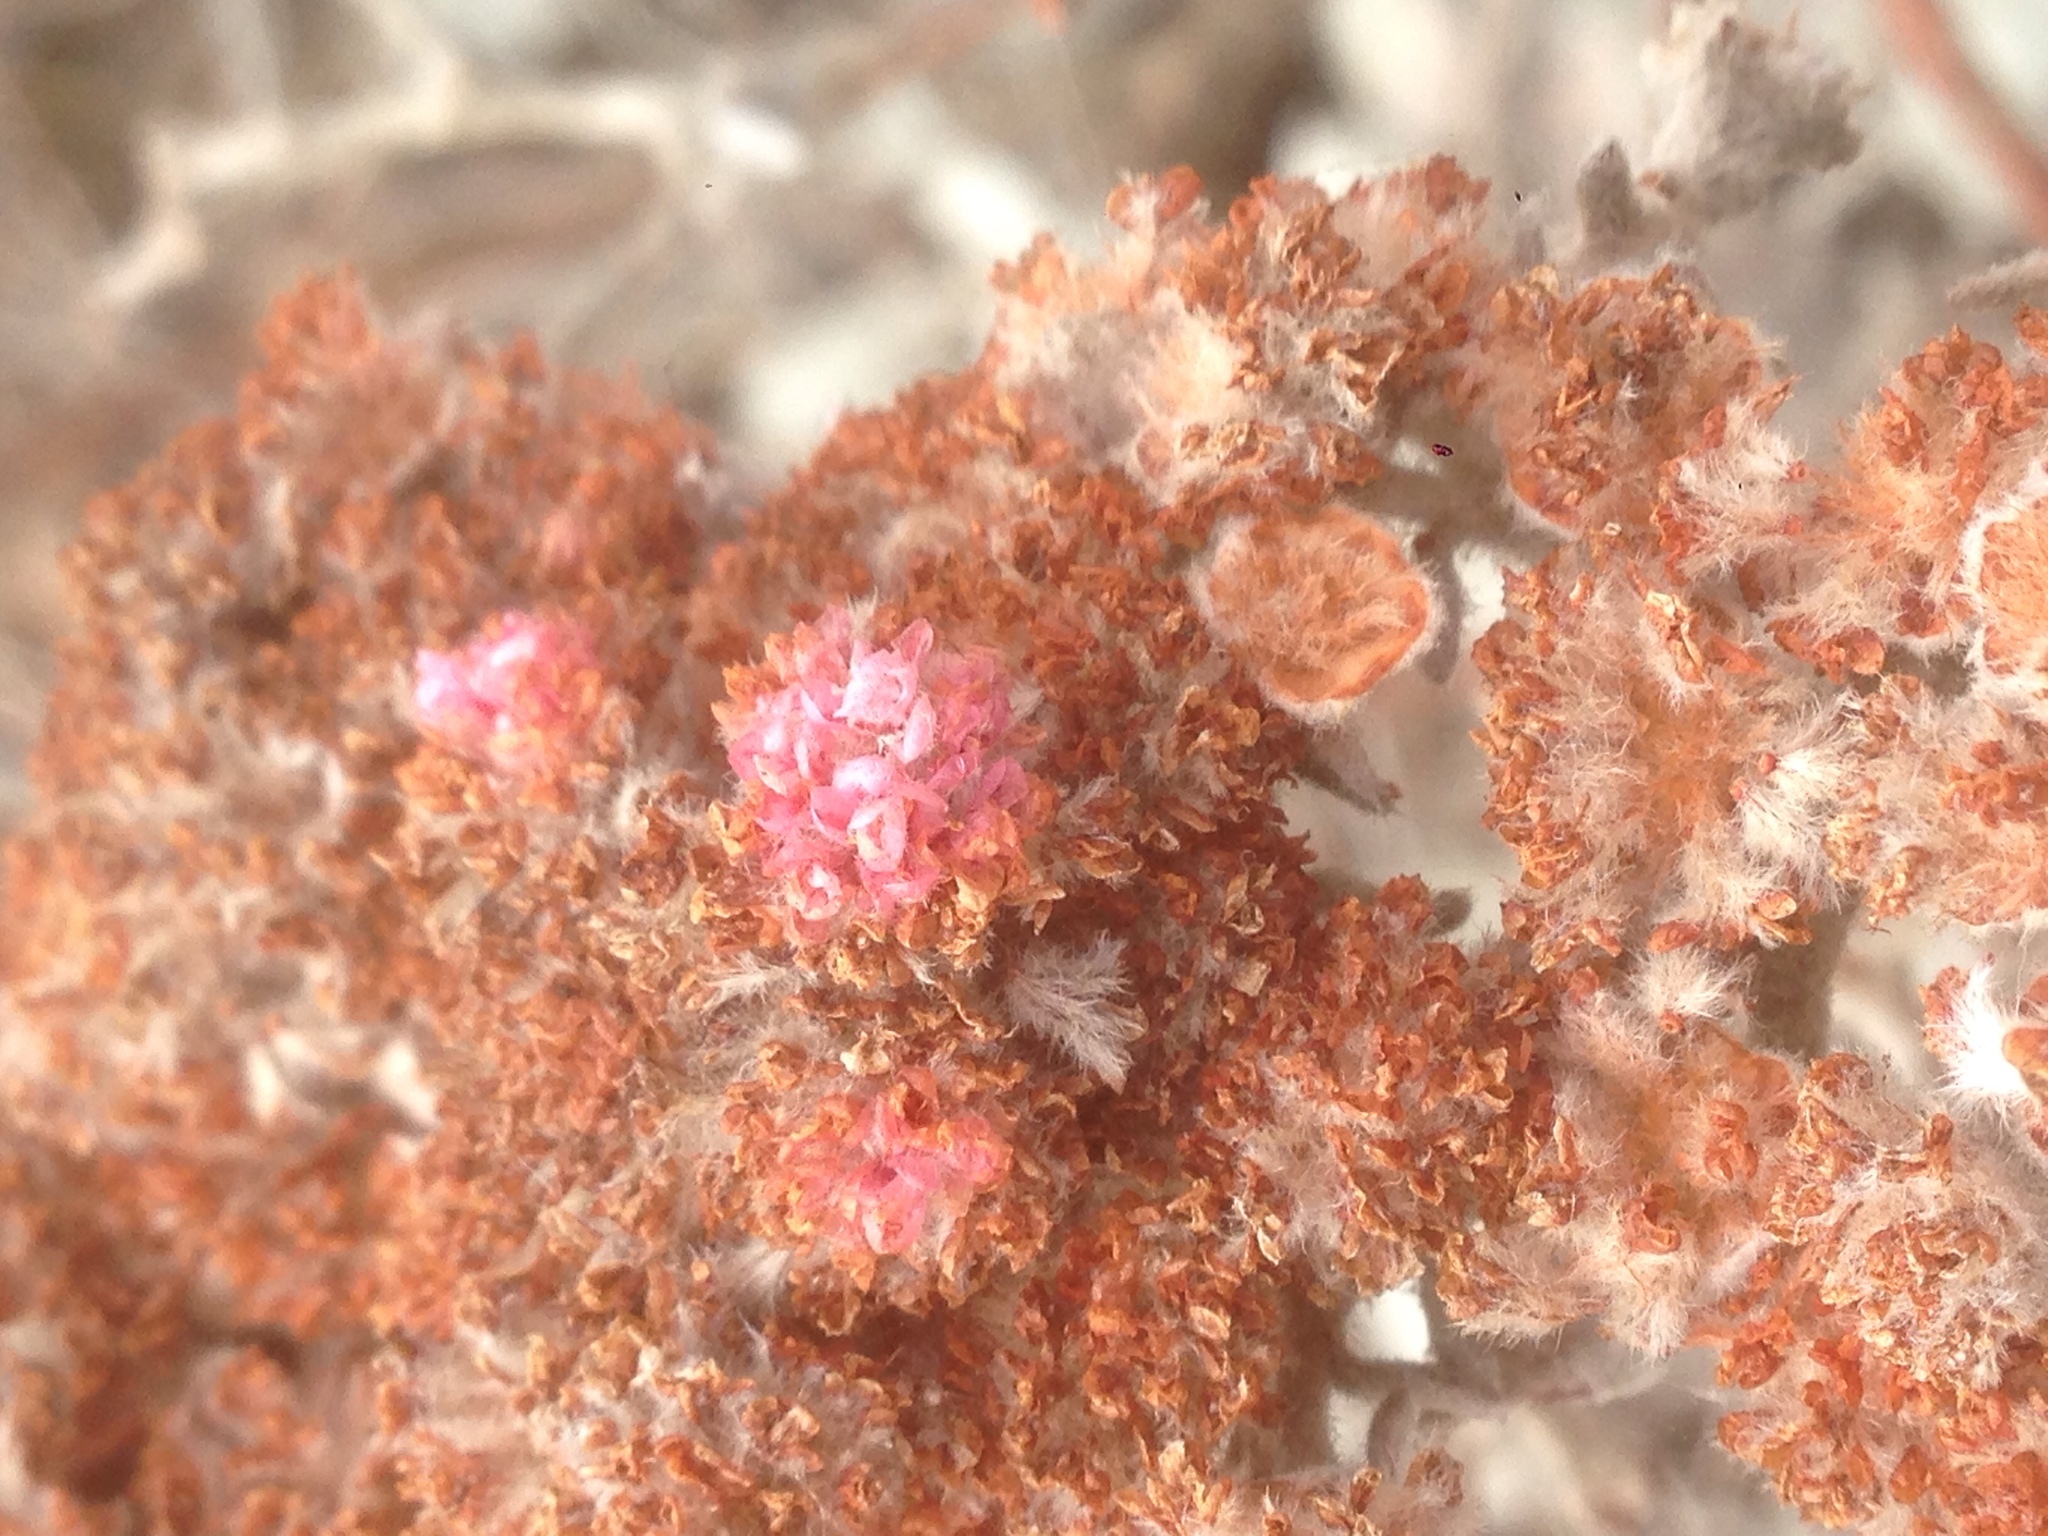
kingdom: Plantae
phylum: Tracheophyta
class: Magnoliopsida
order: Caryophyllales
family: Polygonaceae
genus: Eriogonum
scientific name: Eriogonum giganteum
